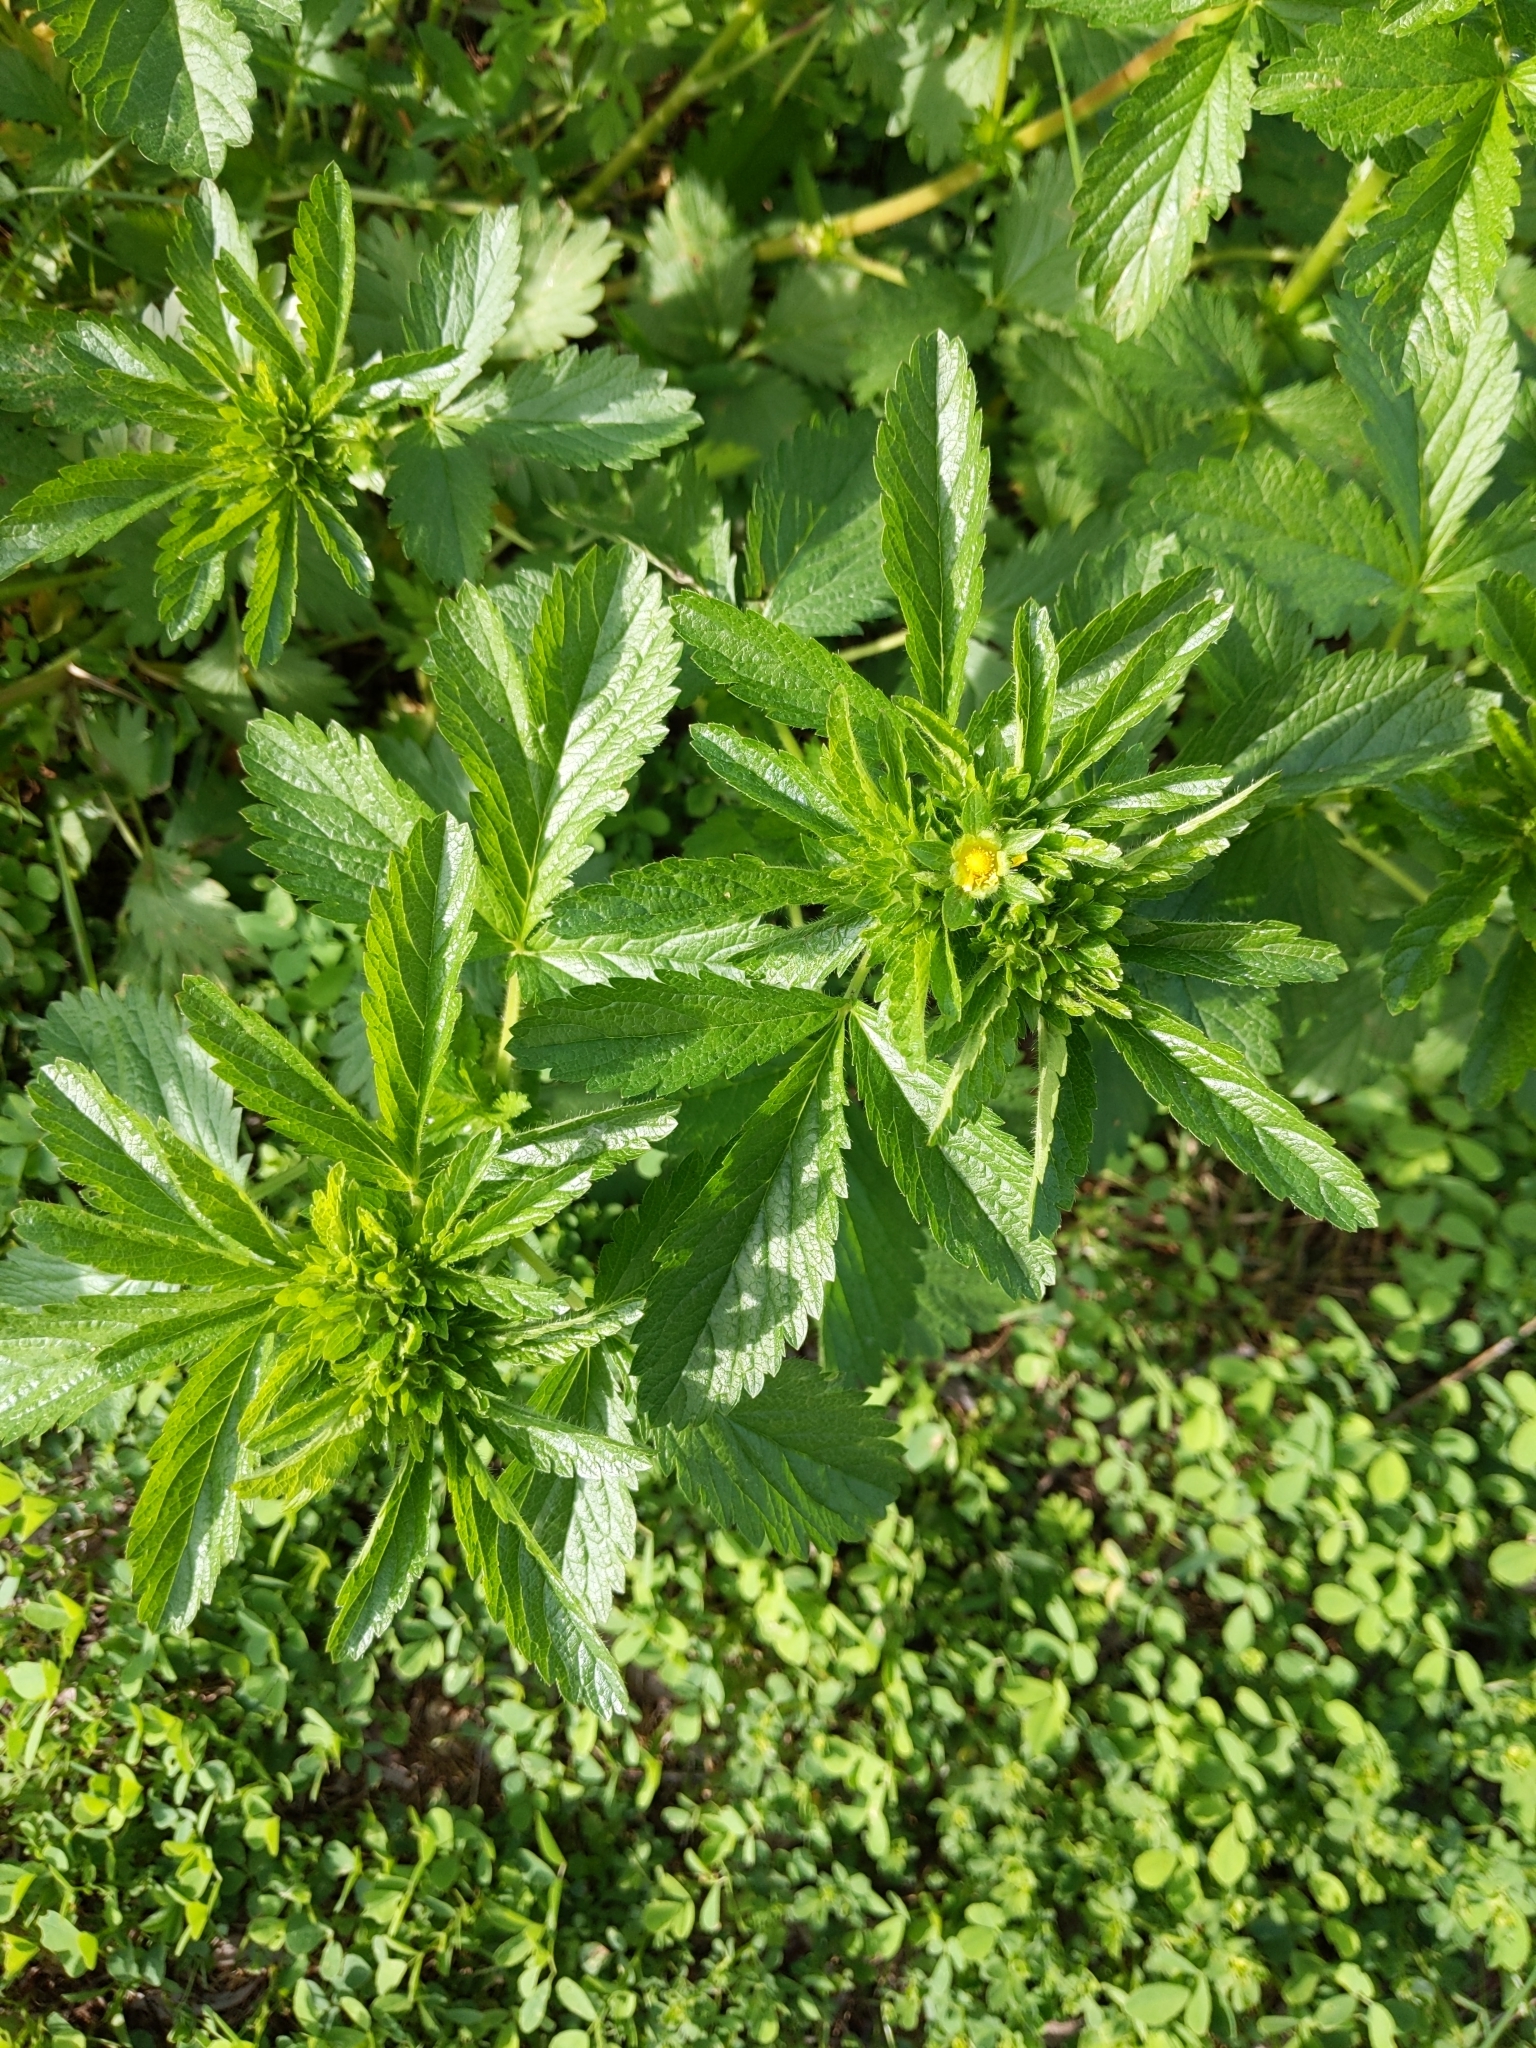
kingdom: Plantae
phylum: Tracheophyta
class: Magnoliopsida
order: Rosales
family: Rosaceae
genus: Potentilla
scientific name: Potentilla norvegica
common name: Ternate-leaved cinquefoil
